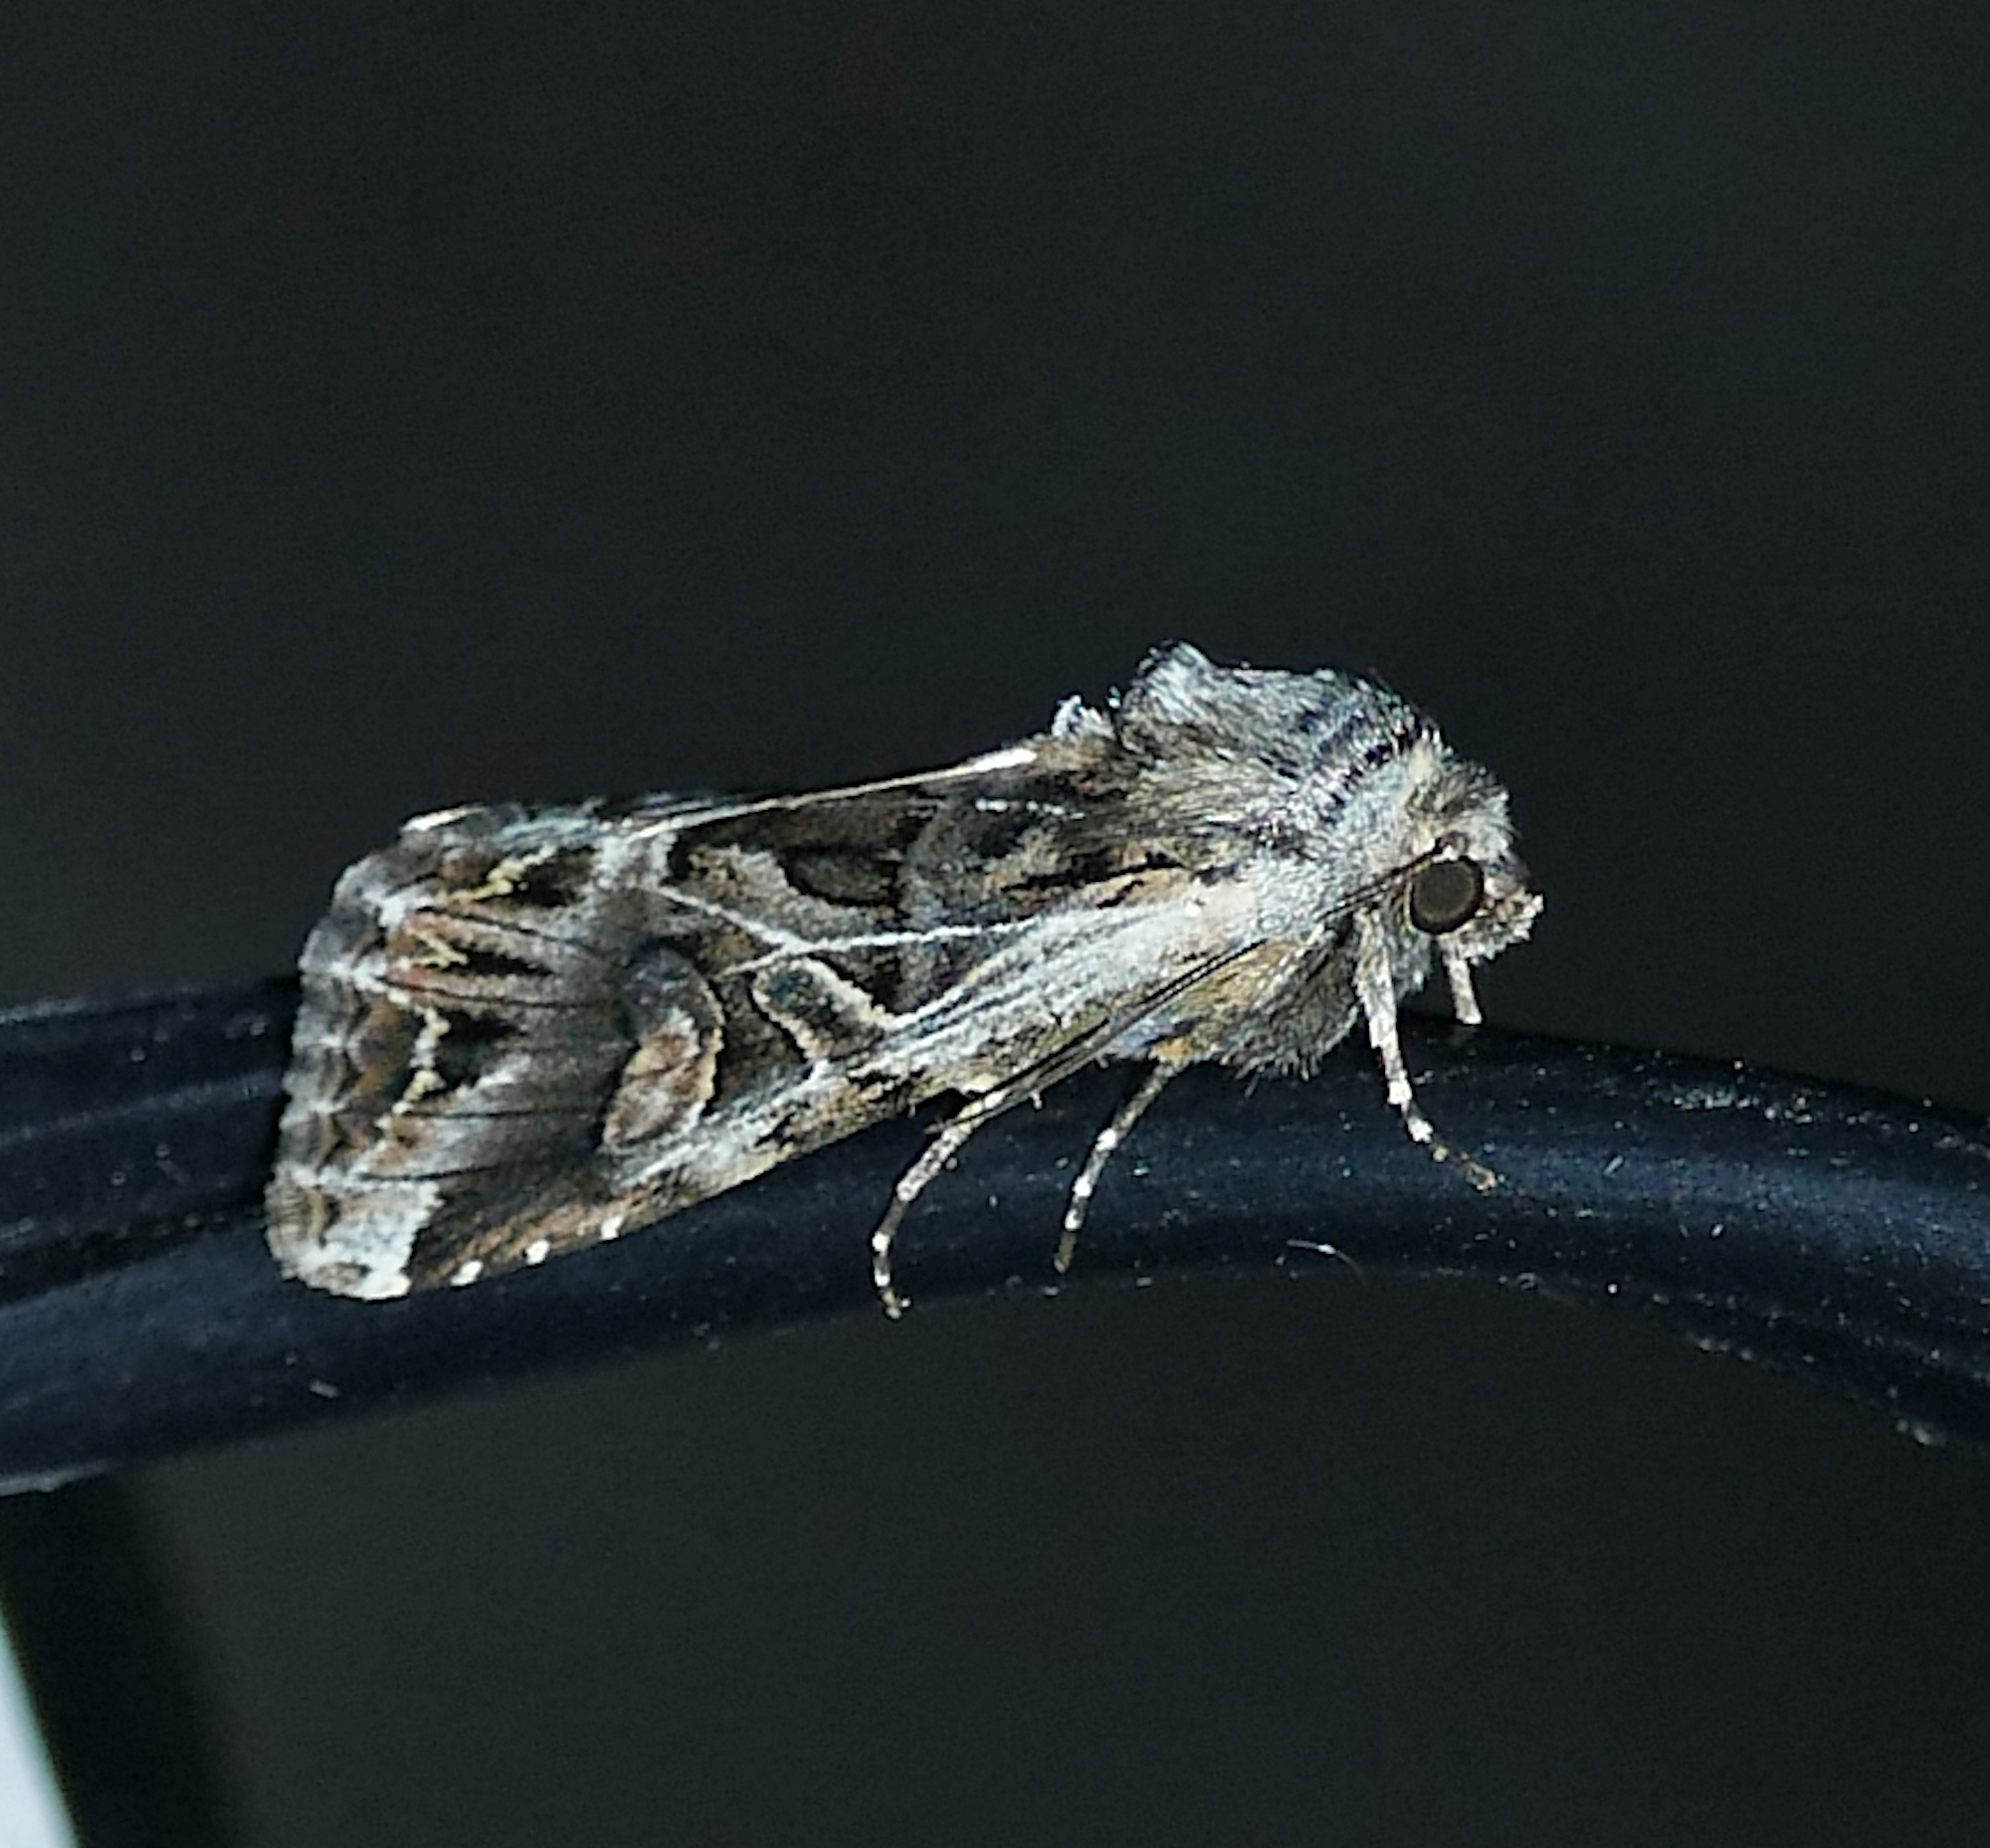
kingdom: Animalia
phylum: Arthropoda
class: Insecta
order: Lepidoptera
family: Noctuidae
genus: Trichordestra
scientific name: Trichordestra prodeniformis
